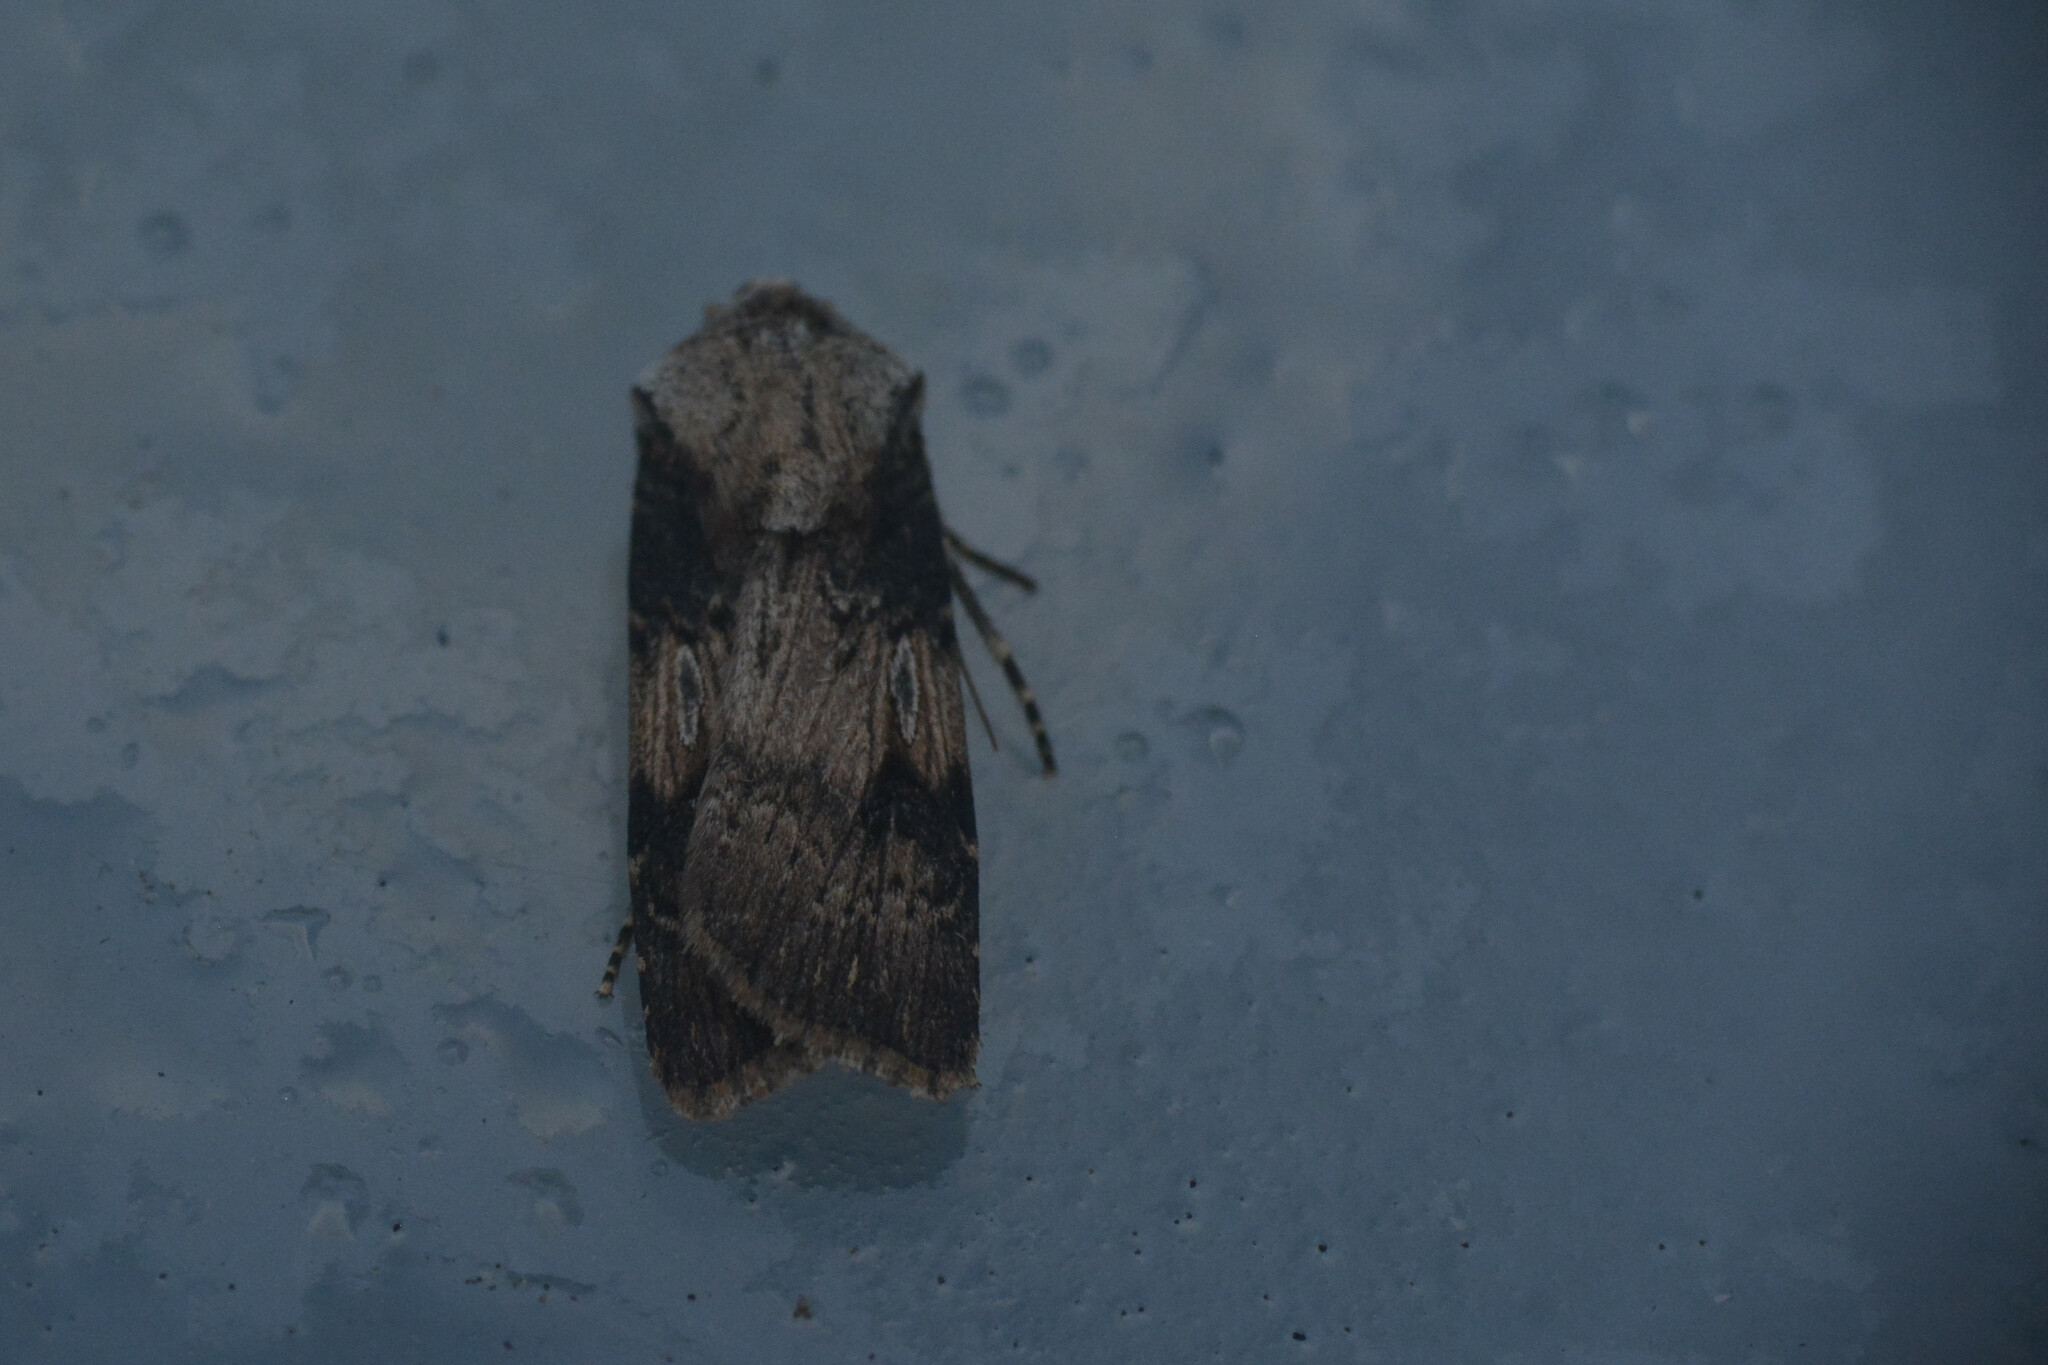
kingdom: Animalia
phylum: Arthropoda
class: Insecta
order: Lepidoptera
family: Noctuidae
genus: Agrotis
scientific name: Agrotis puta
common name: Shuttle-shaped dart
